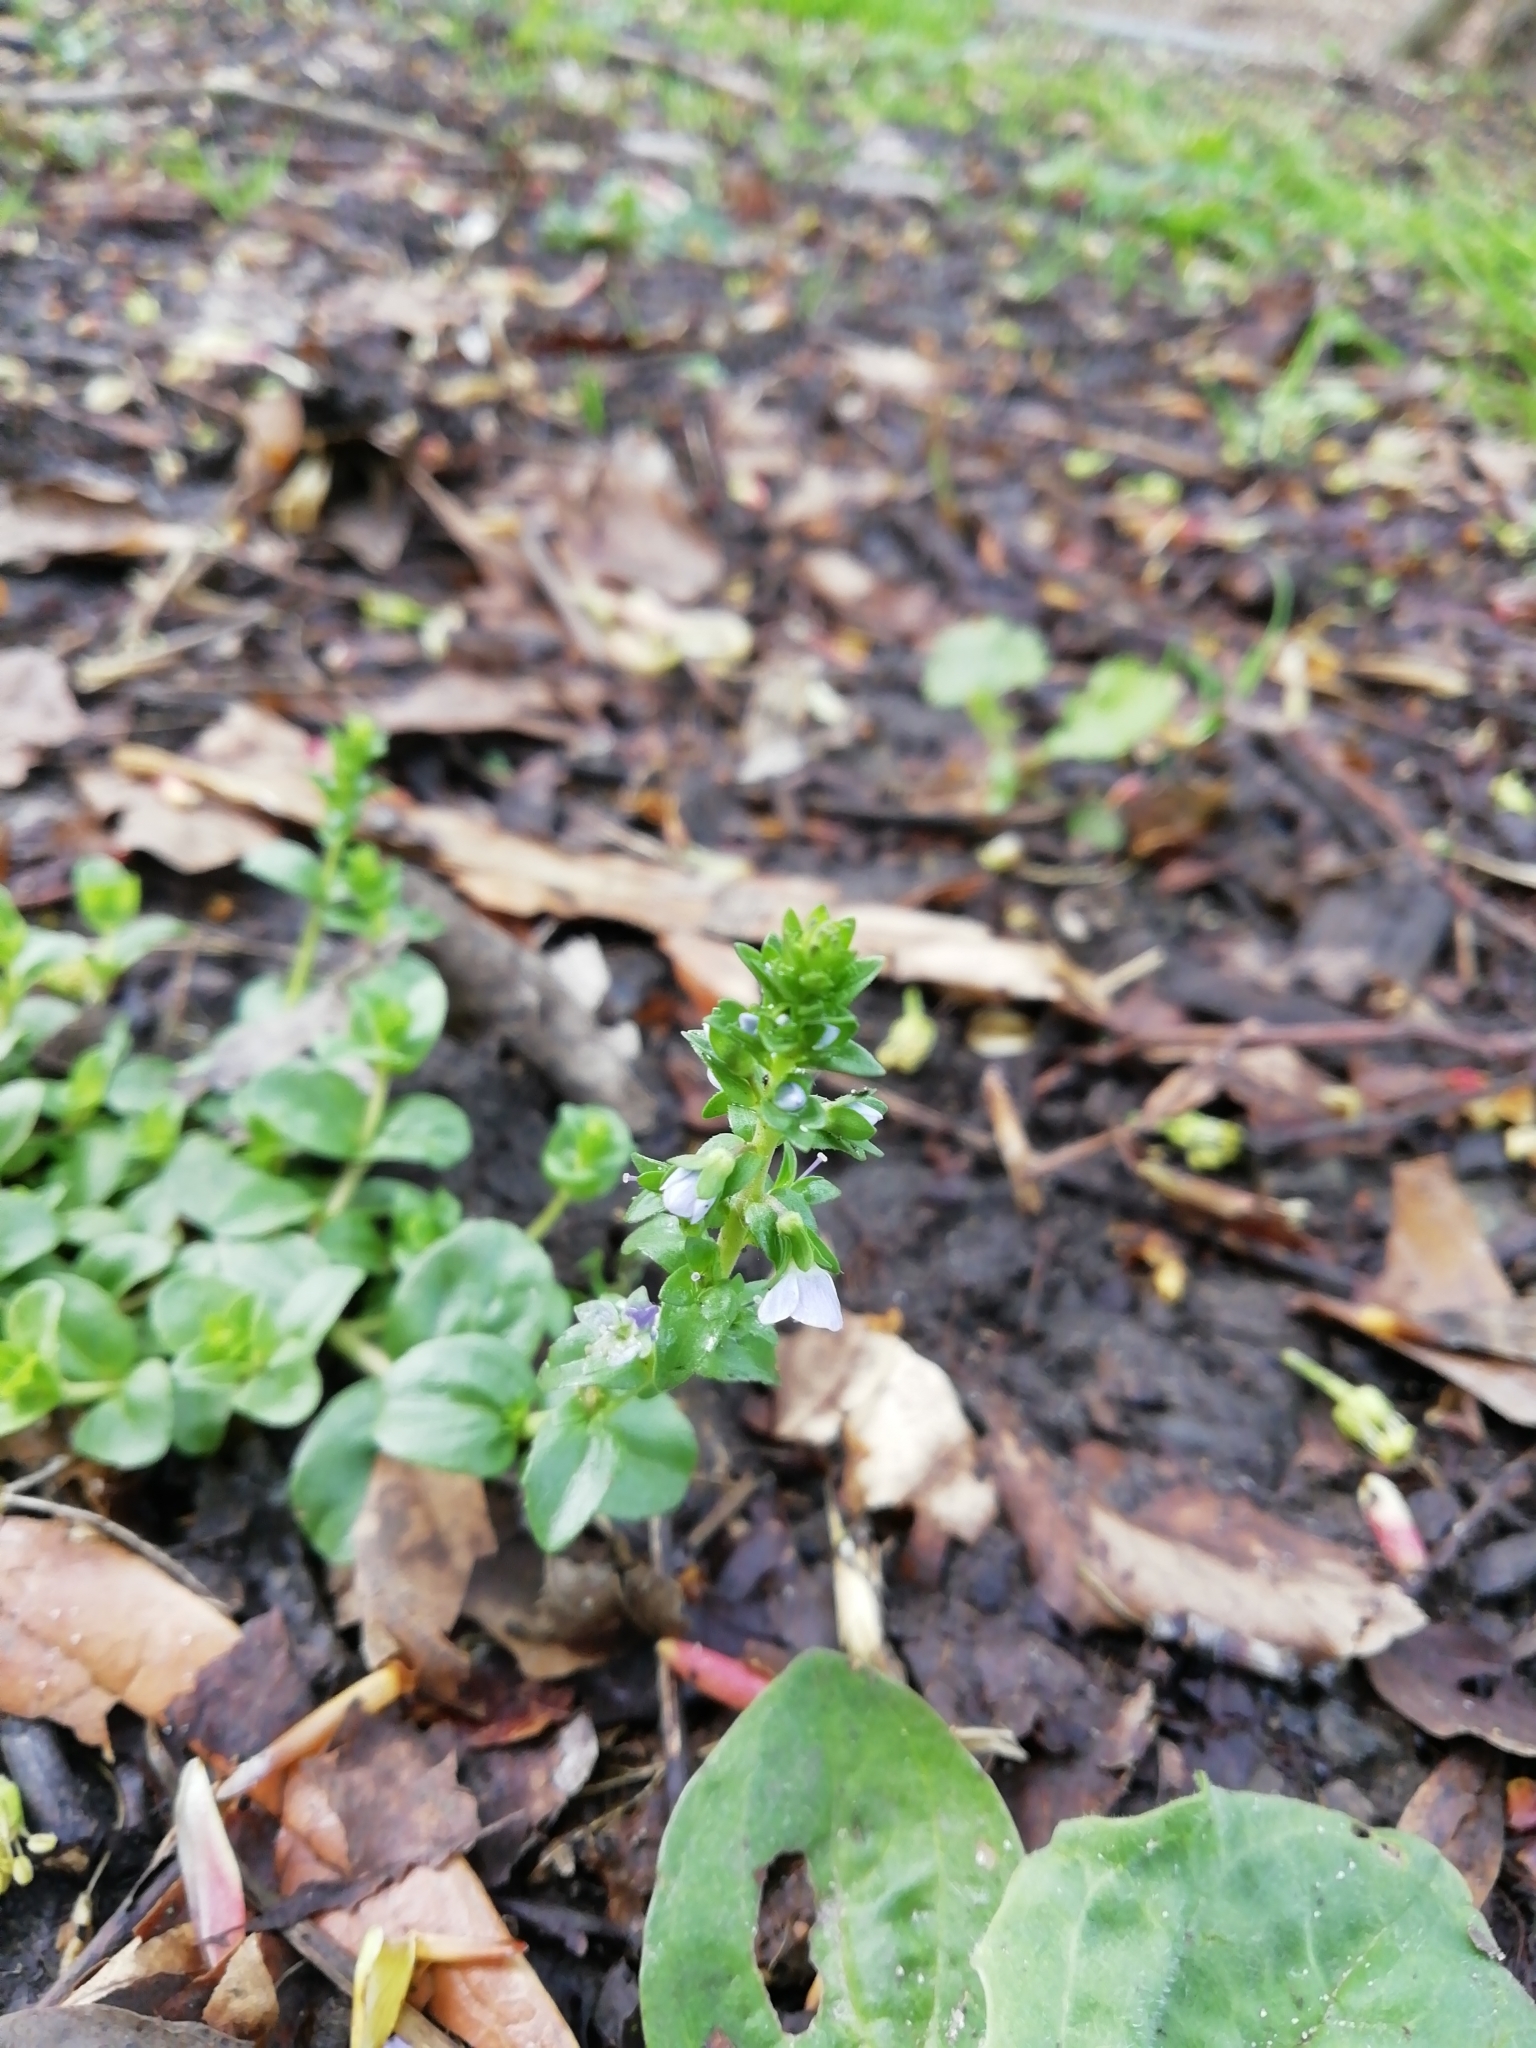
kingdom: Plantae
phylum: Tracheophyta
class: Magnoliopsida
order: Lamiales
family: Plantaginaceae
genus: Veronica
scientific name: Veronica serpyllifolia
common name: Thyme-leaved speedwell
